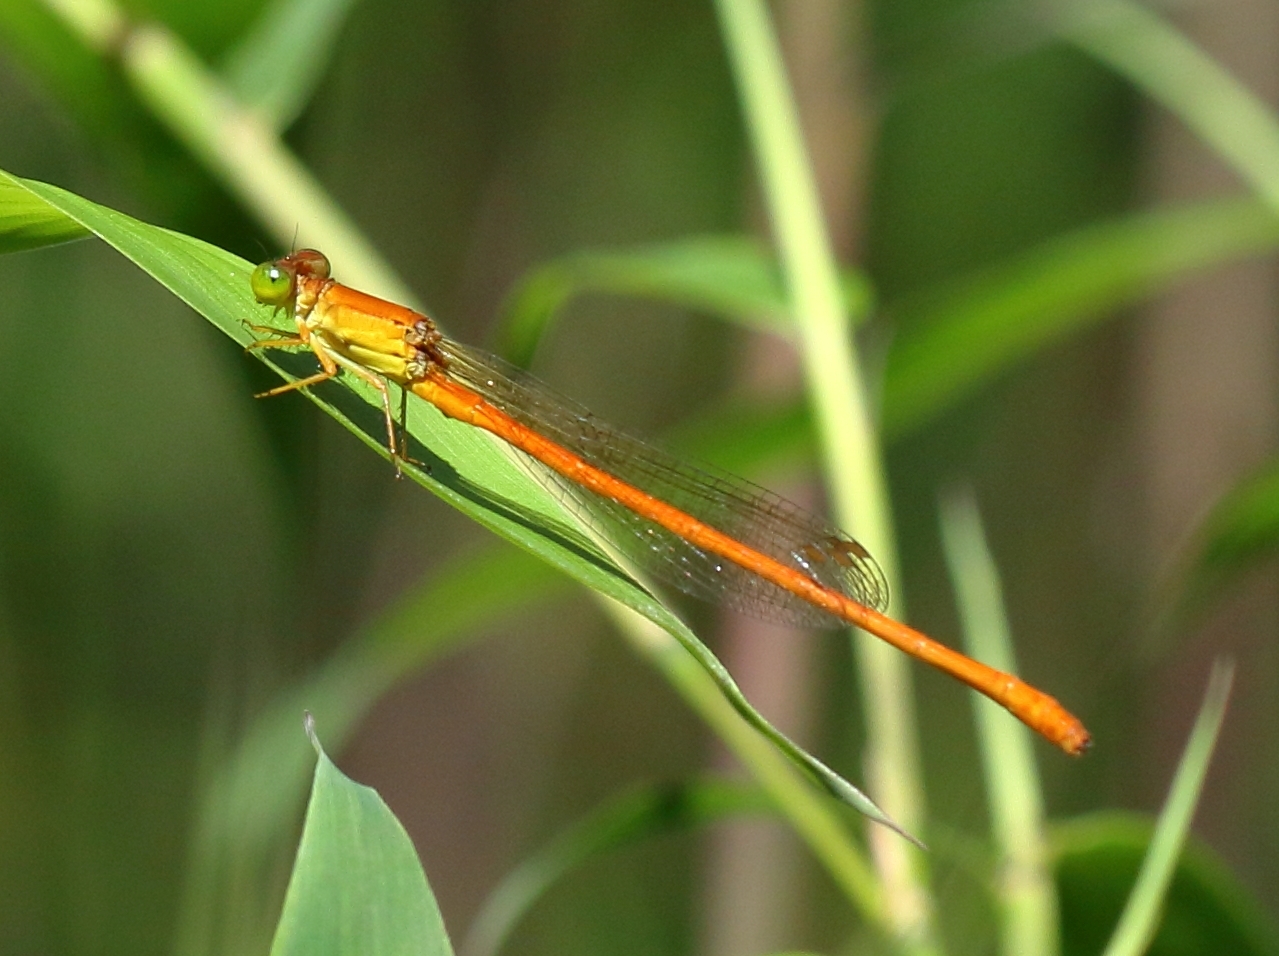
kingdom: Animalia
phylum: Arthropoda
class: Insecta
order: Odonata
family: Coenagrionidae
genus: Ceriagrion
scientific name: Ceriagrion glabrum
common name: Common pond damsel
